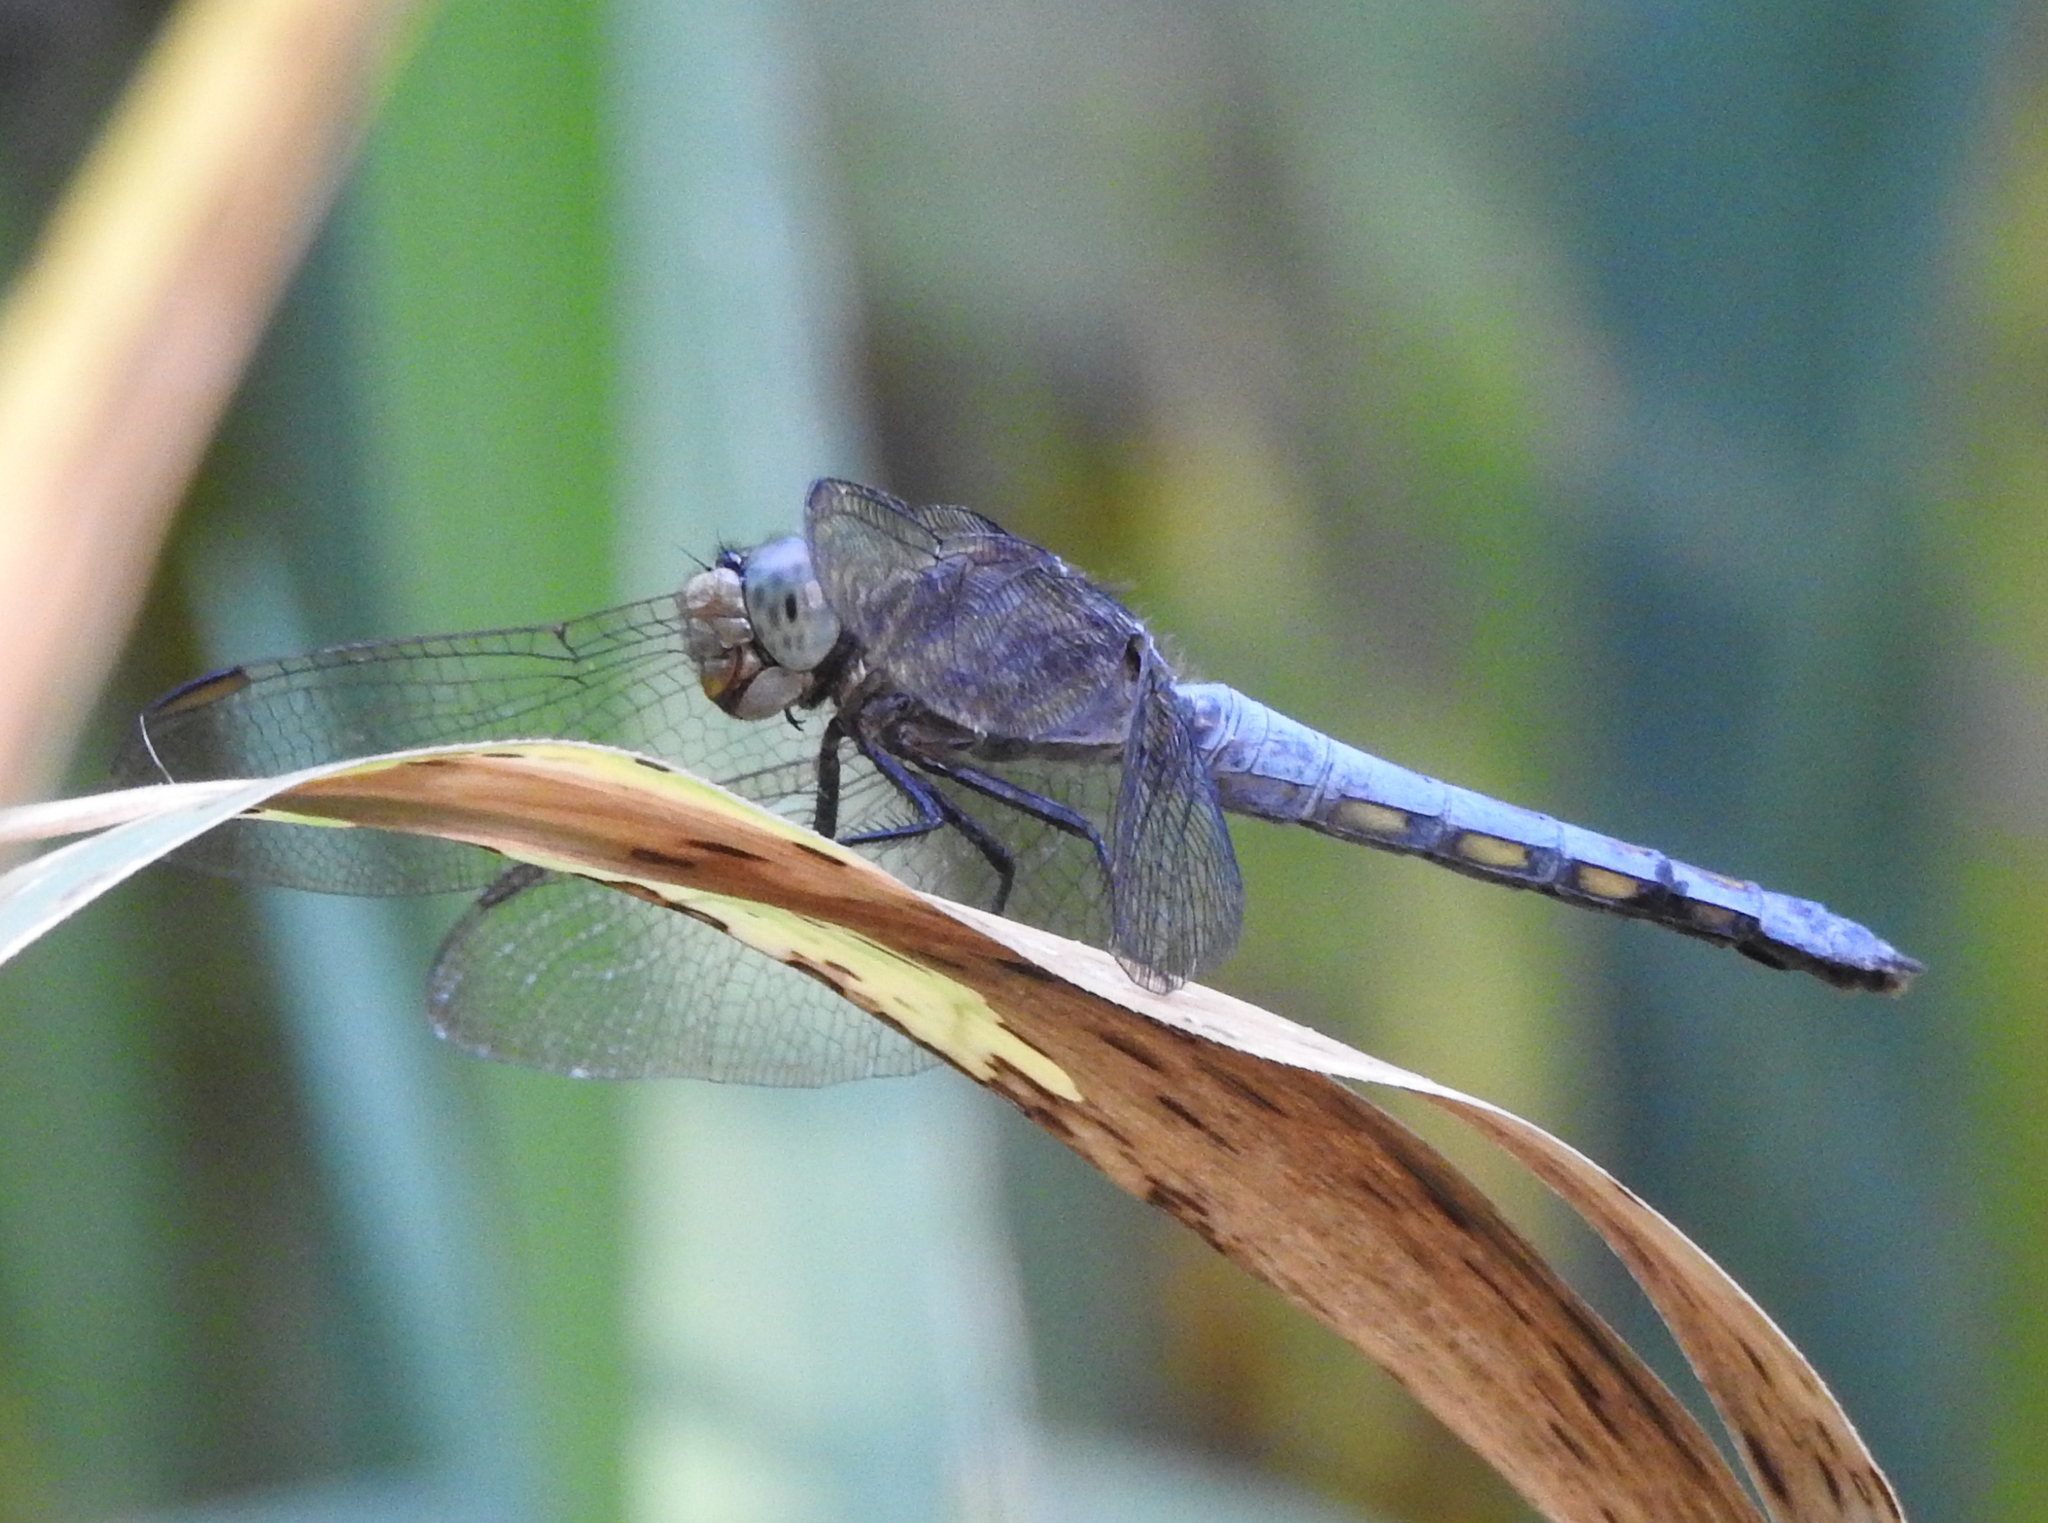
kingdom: Animalia
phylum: Arthropoda
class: Insecta
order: Odonata
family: Libellulidae
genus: Potamarcha
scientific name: Potamarcha congener
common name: Blue chaser
